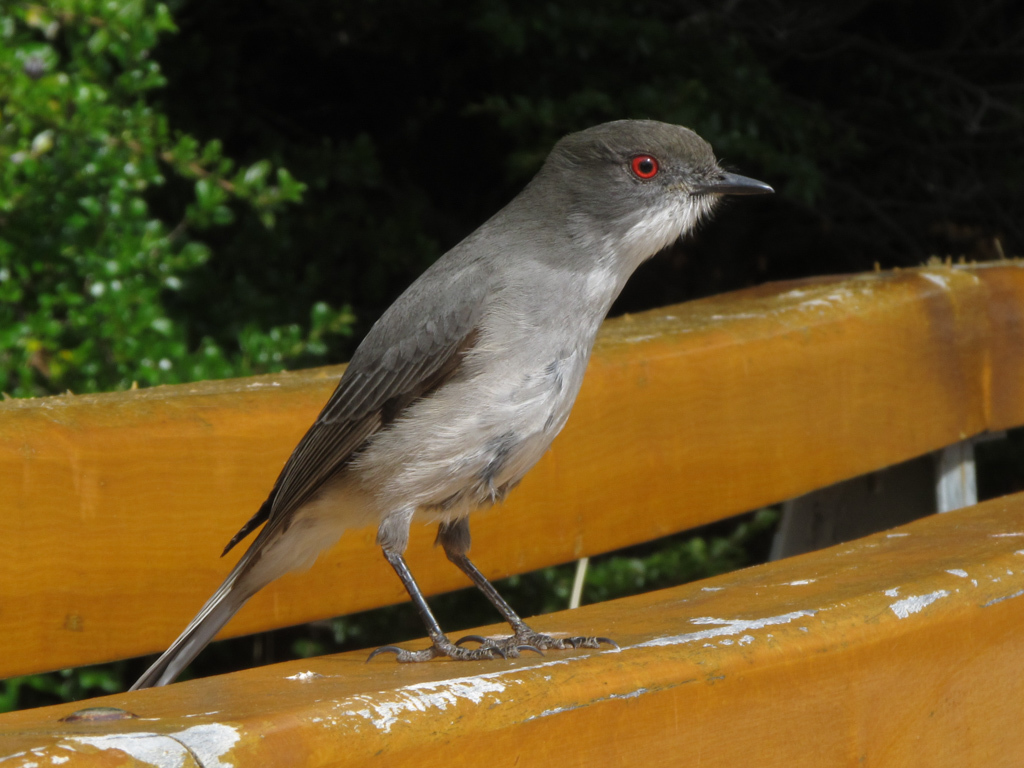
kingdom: Animalia
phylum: Chordata
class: Aves
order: Passeriformes
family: Tyrannidae
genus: Xolmis
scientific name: Xolmis pyrope
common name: Fire-eyed diucon
